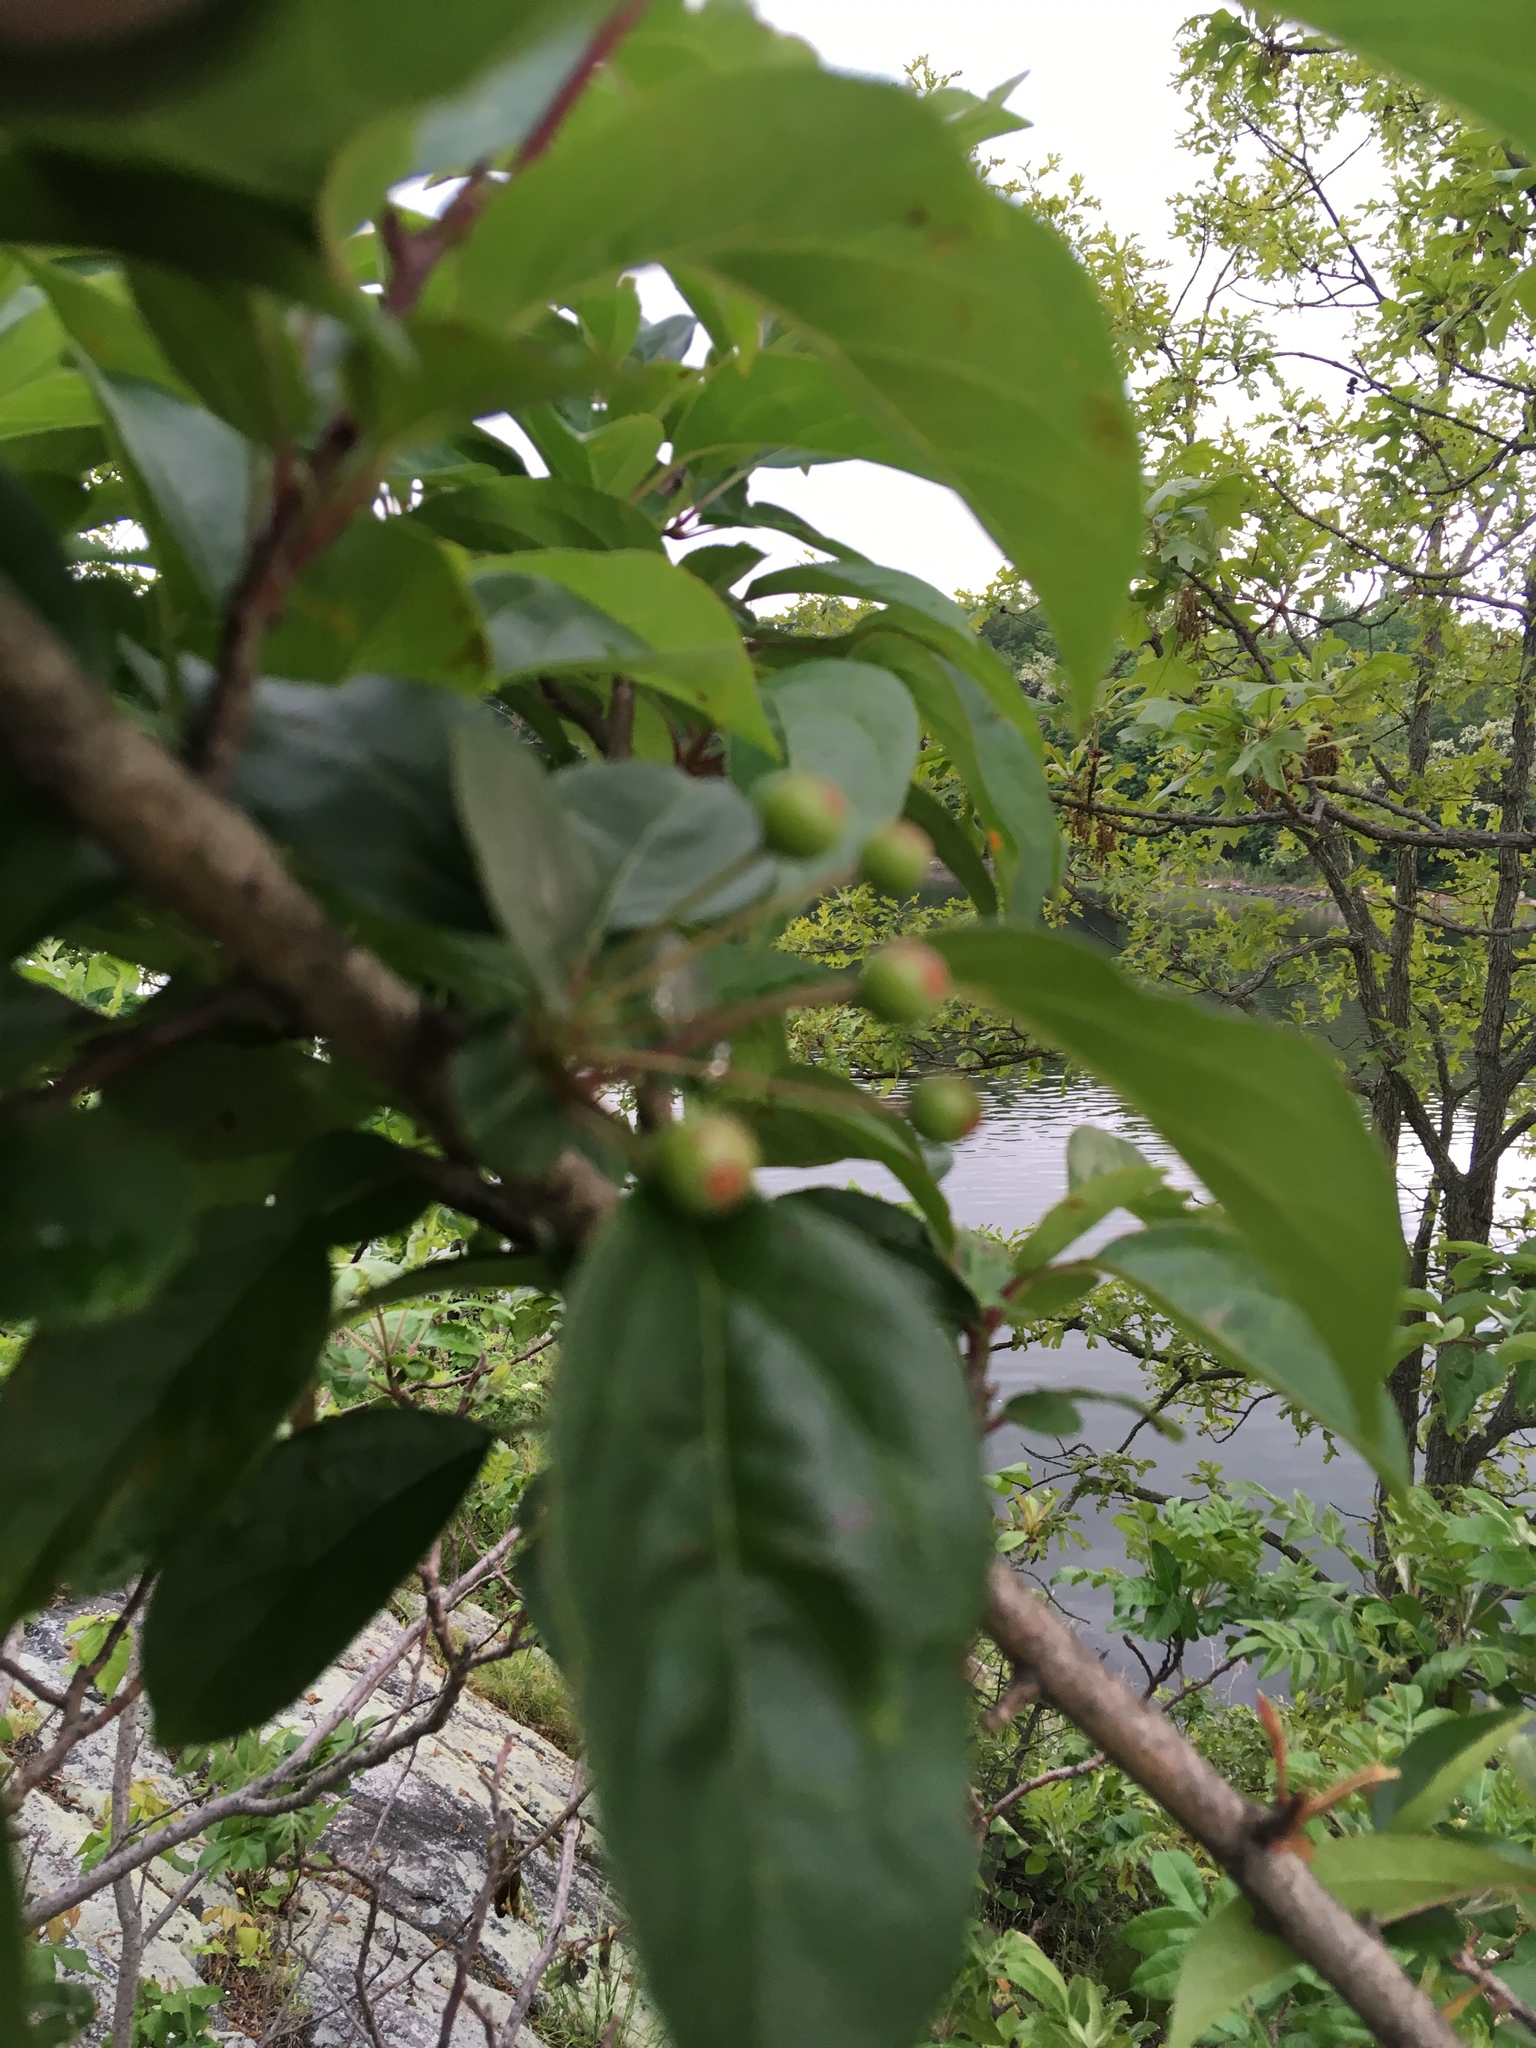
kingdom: Plantae
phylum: Tracheophyta
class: Magnoliopsida
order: Rosales
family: Rosaceae
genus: Malus
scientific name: Malus hupehensis
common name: Chinese crab apple
